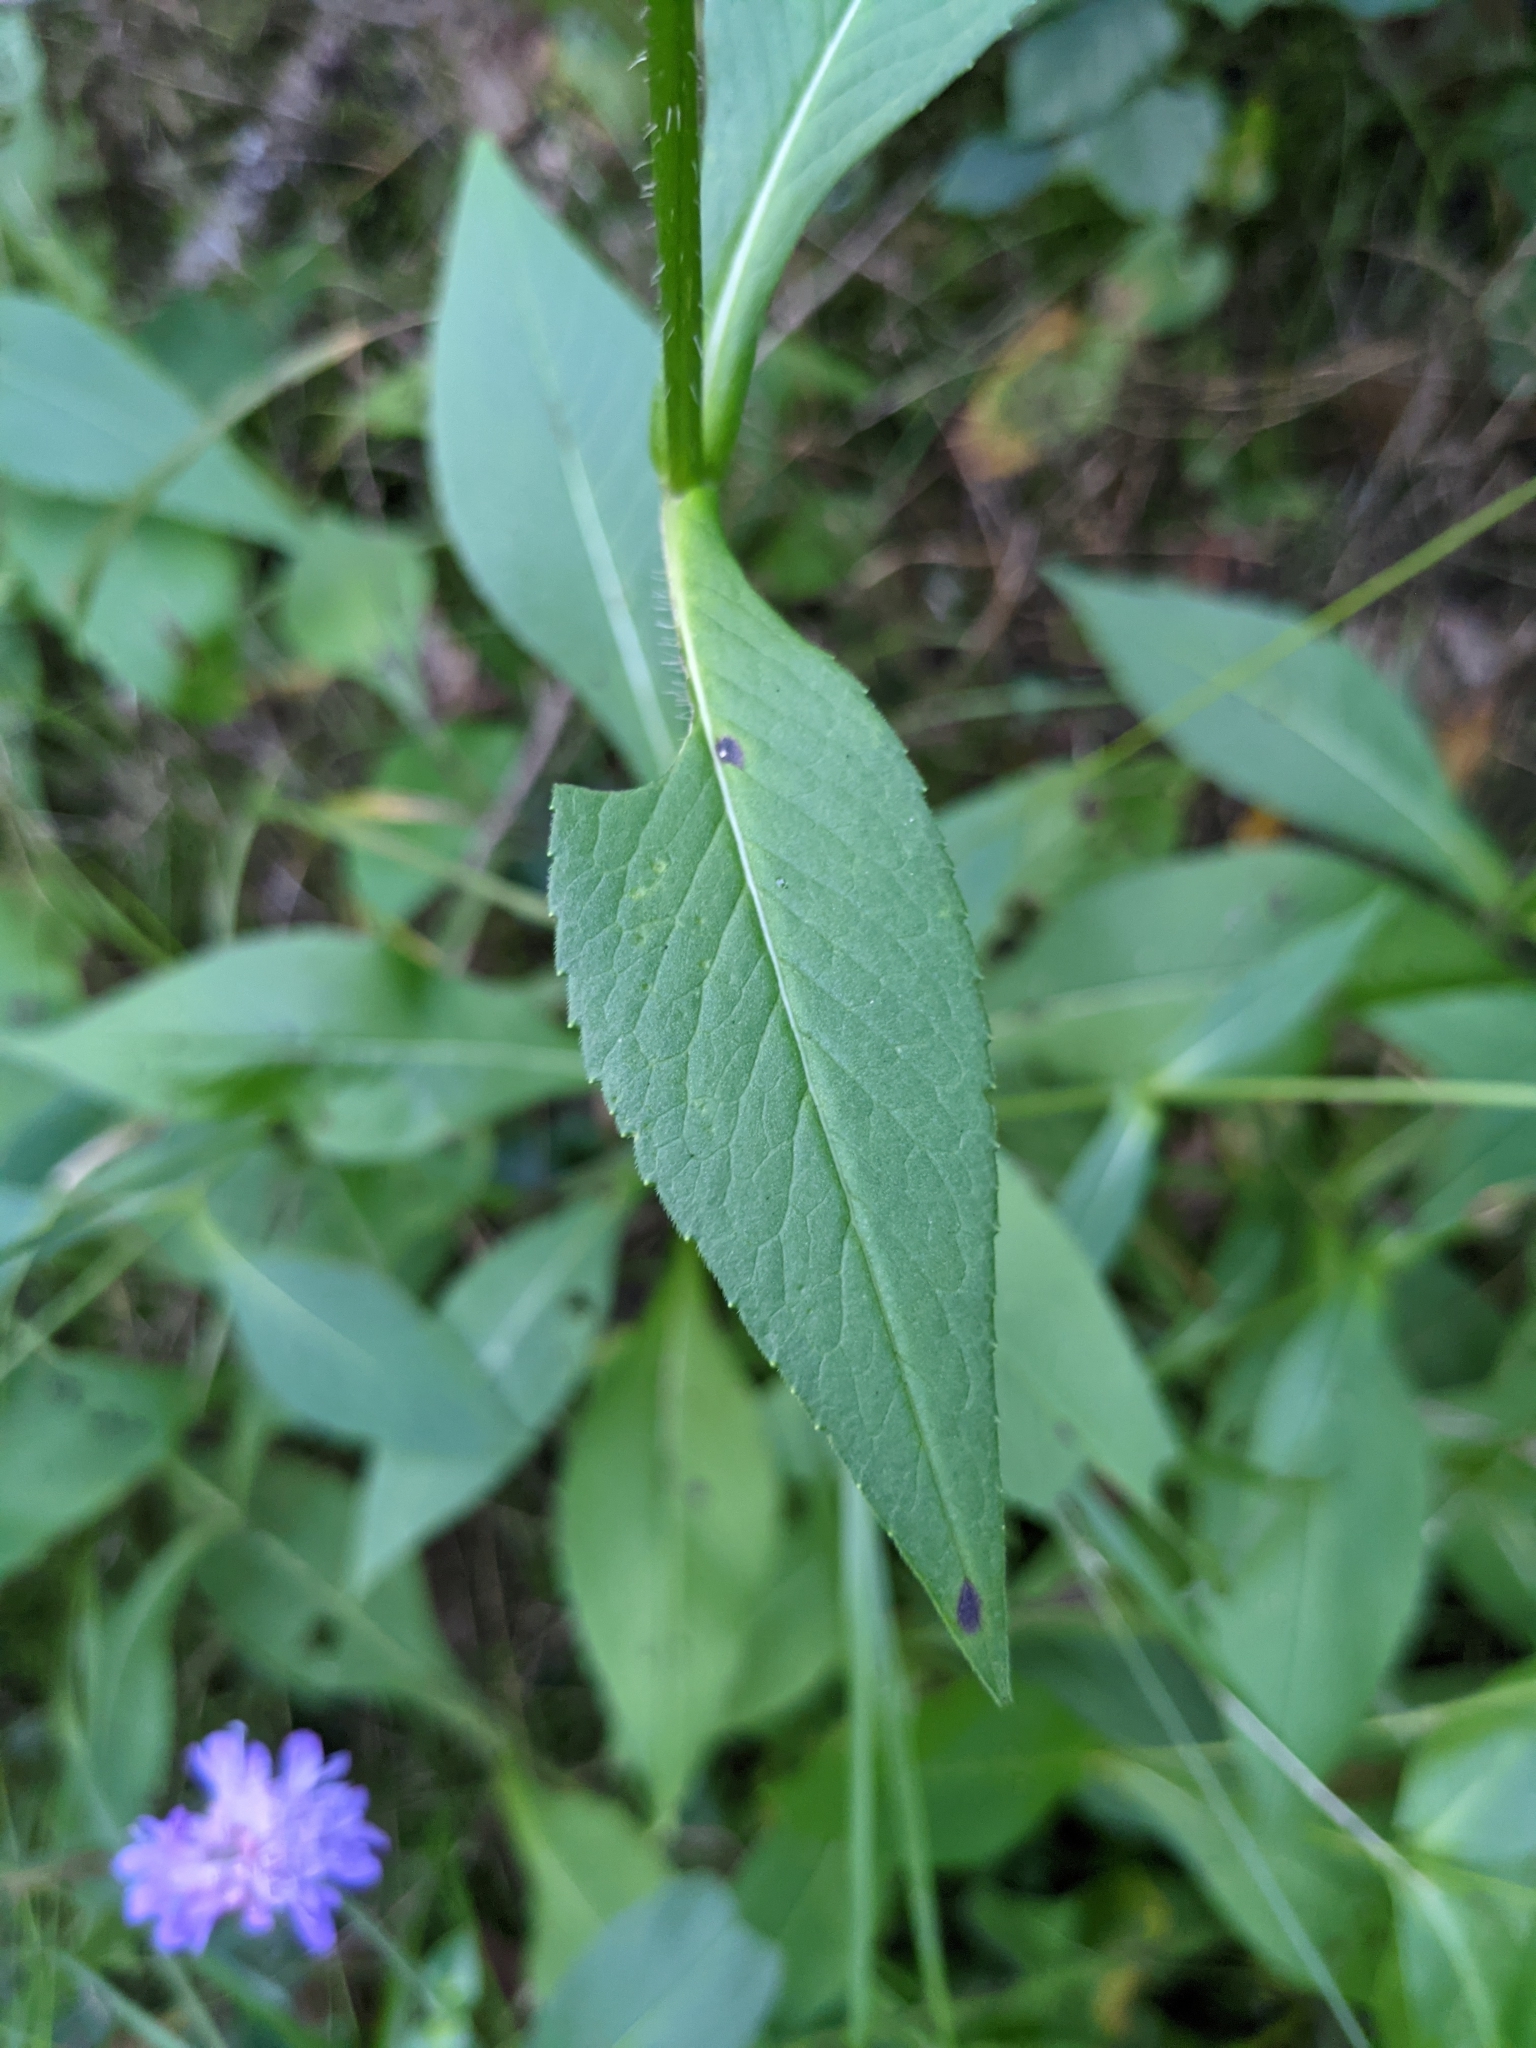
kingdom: Plantae
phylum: Tracheophyta
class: Magnoliopsida
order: Dipsacales
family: Caprifoliaceae
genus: Knautia
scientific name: Knautia dipsacifolia
